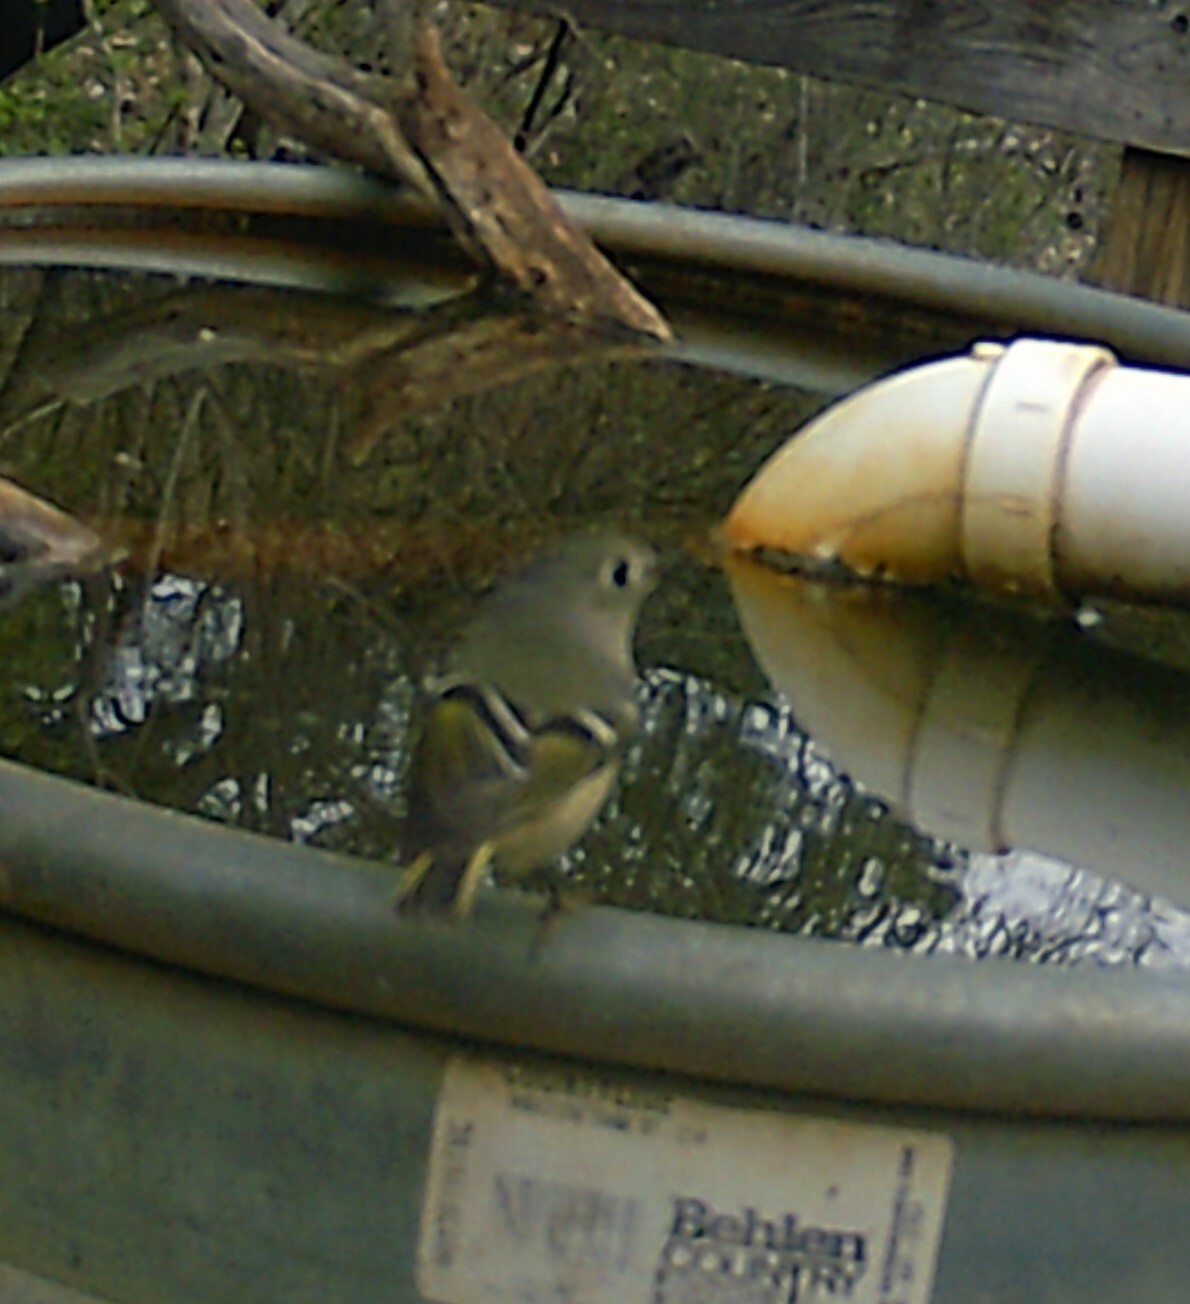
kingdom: Animalia
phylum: Chordata
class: Aves
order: Passeriformes
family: Regulidae
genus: Regulus
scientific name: Regulus calendula
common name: Ruby-crowned kinglet
